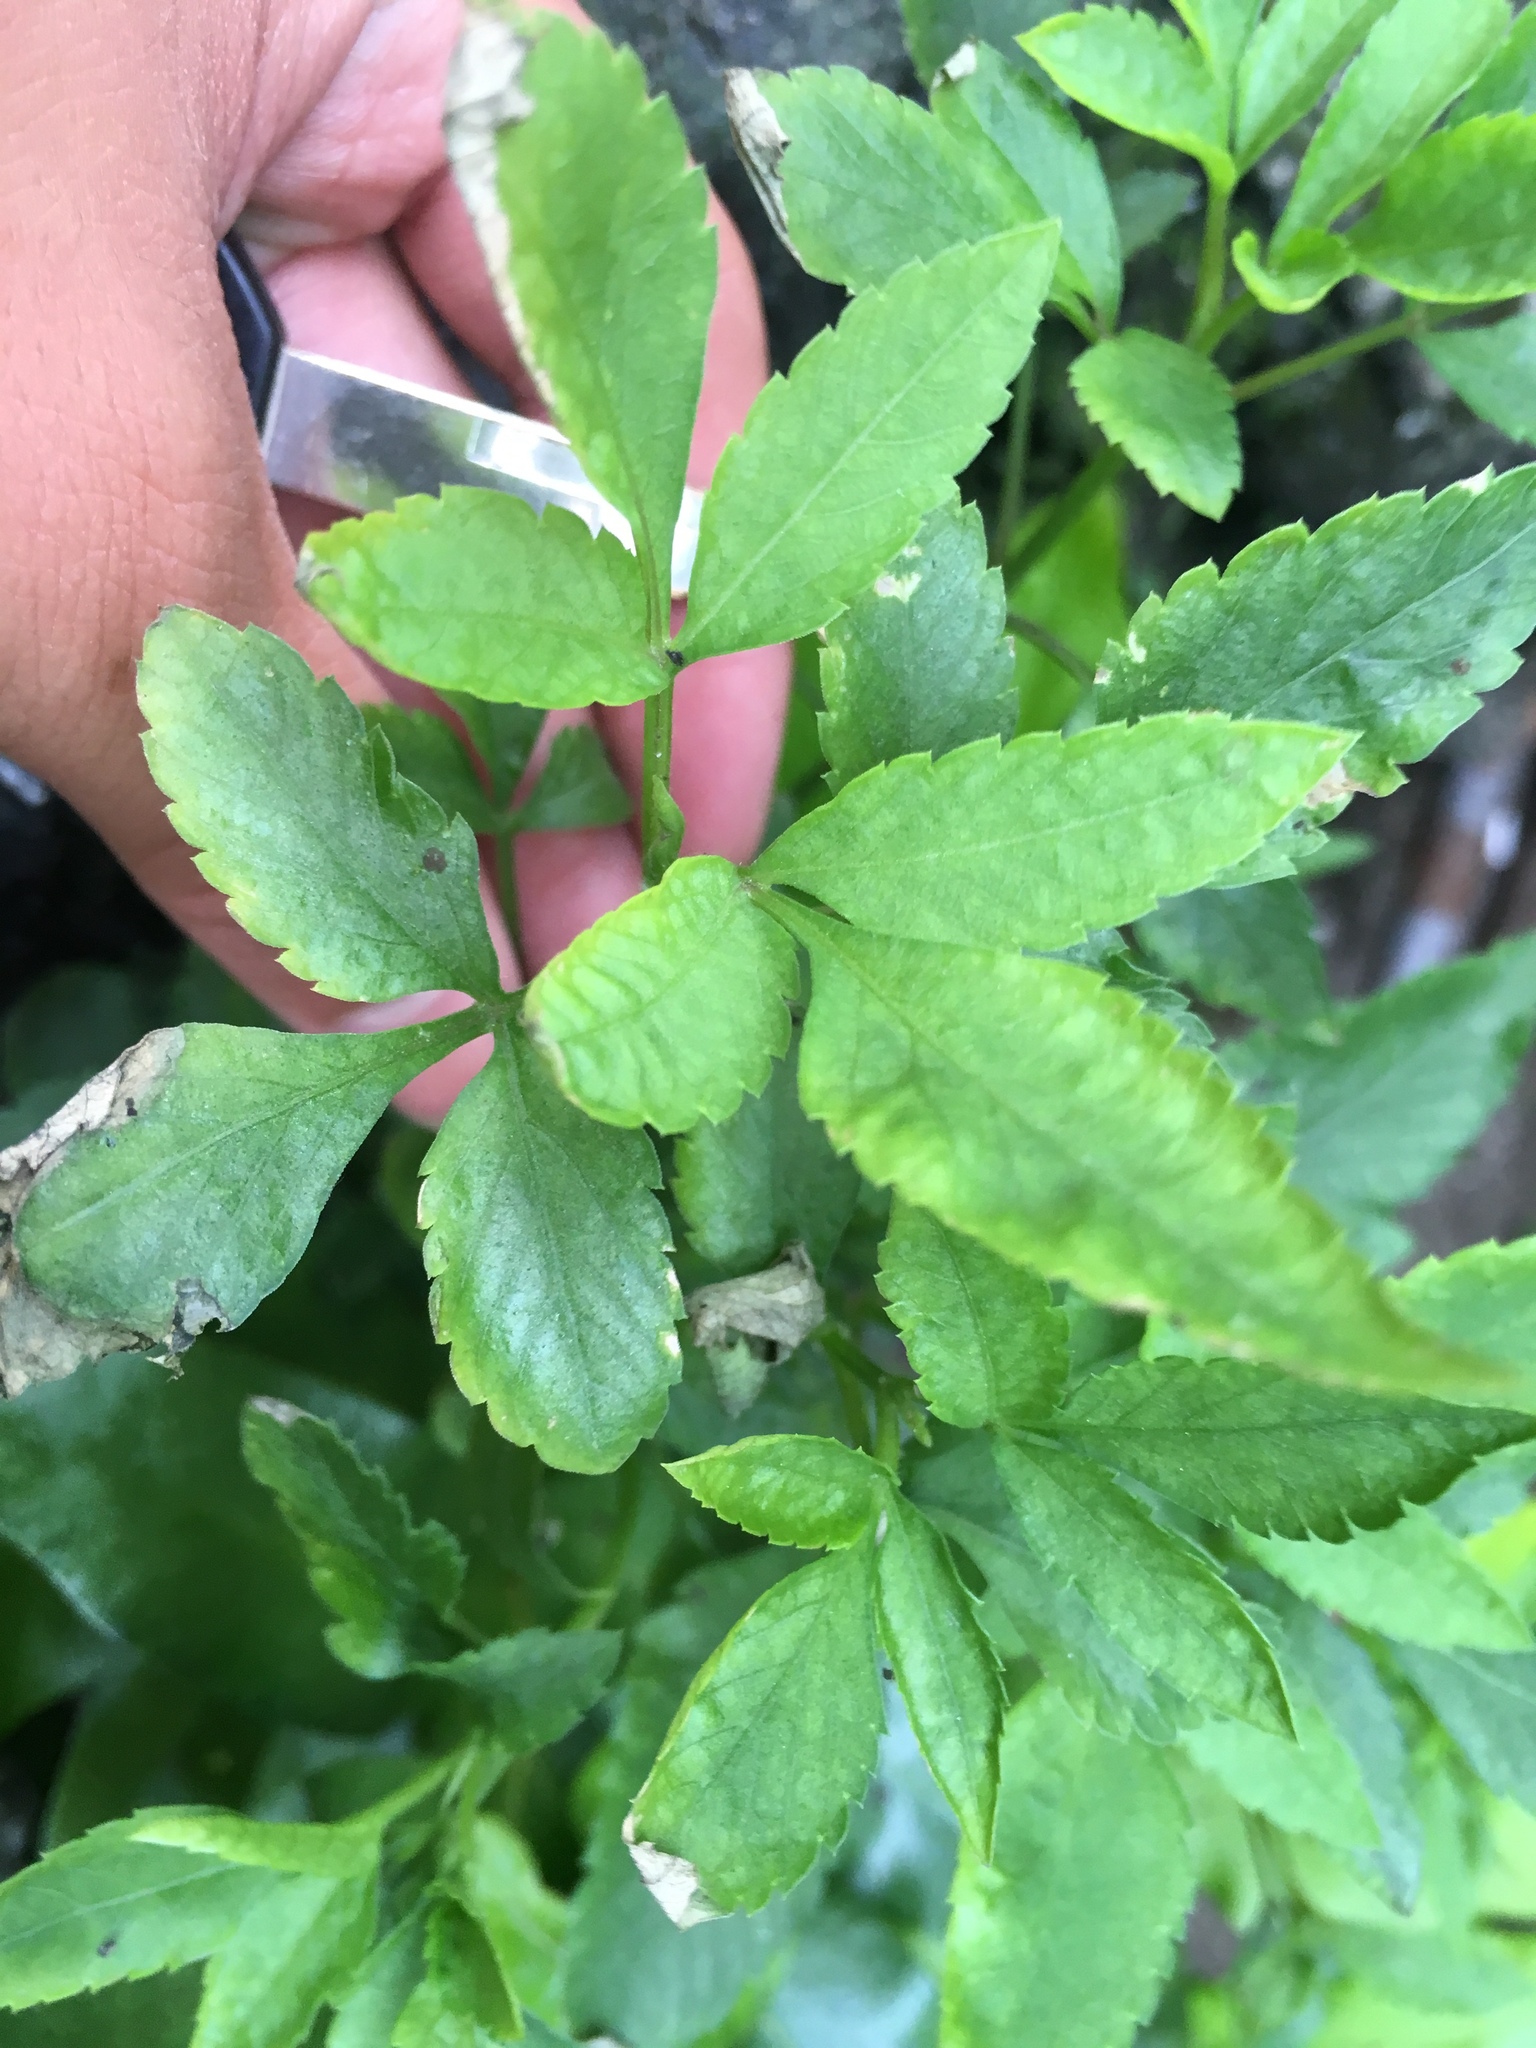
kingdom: Plantae
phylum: Tracheophyta
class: Magnoliopsida
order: Asterales
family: Asteraceae
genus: Bidens
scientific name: Bidens alba
